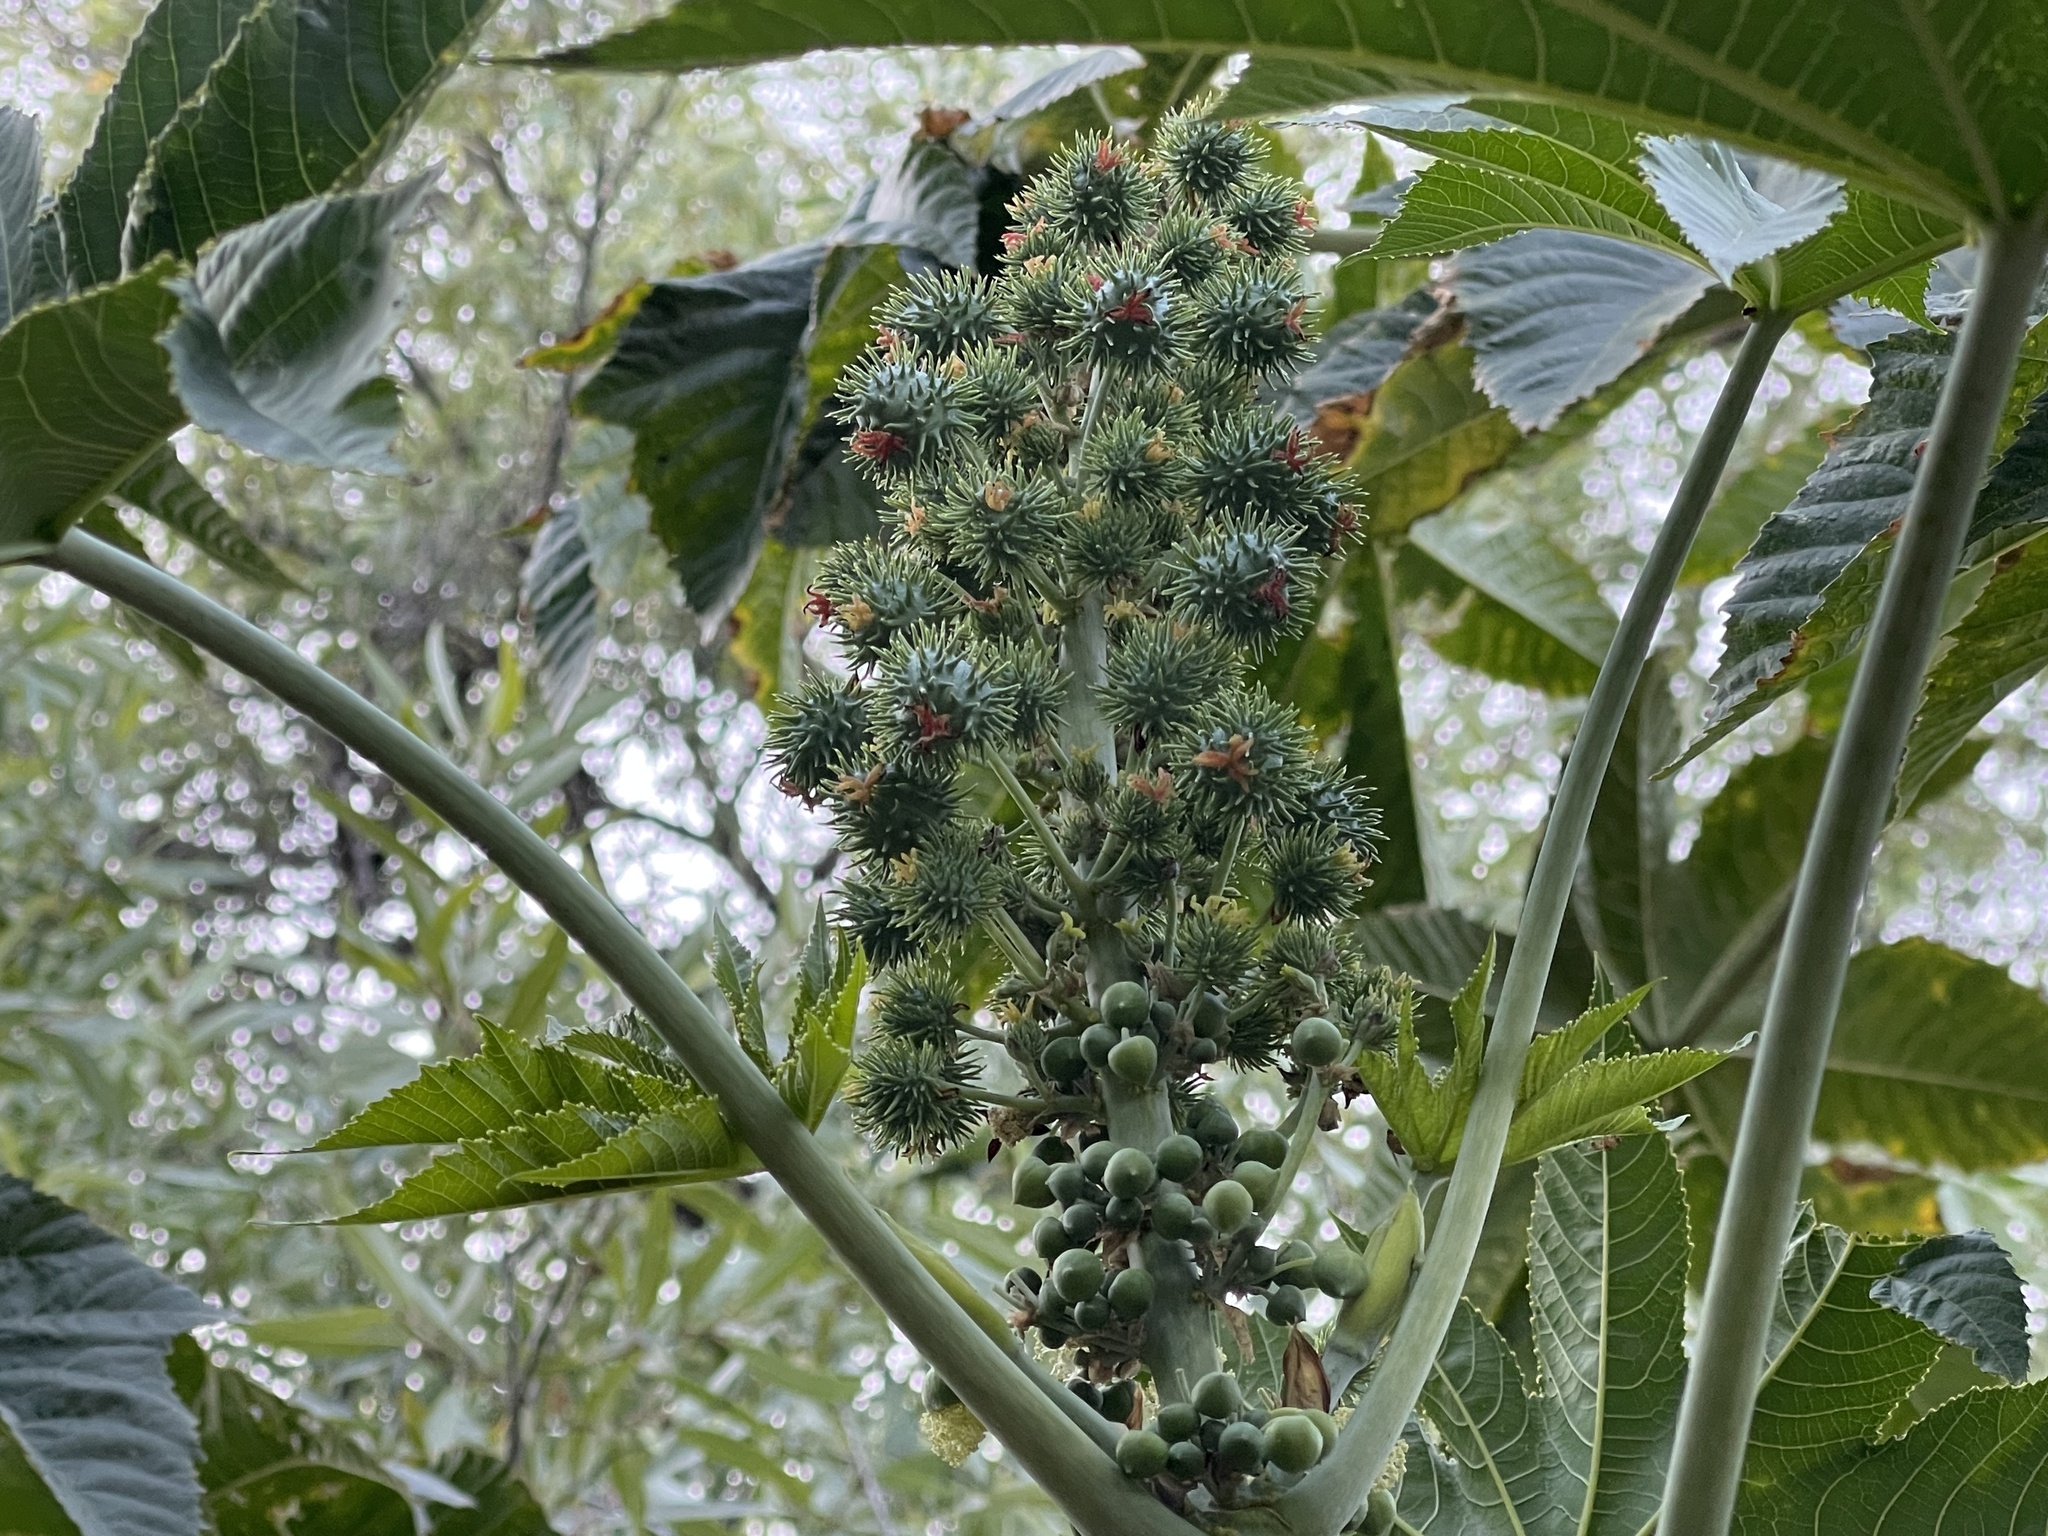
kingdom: Plantae
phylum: Tracheophyta
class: Magnoliopsida
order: Malpighiales
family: Euphorbiaceae
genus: Ricinus
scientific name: Ricinus communis
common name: Castor-oil-plant
